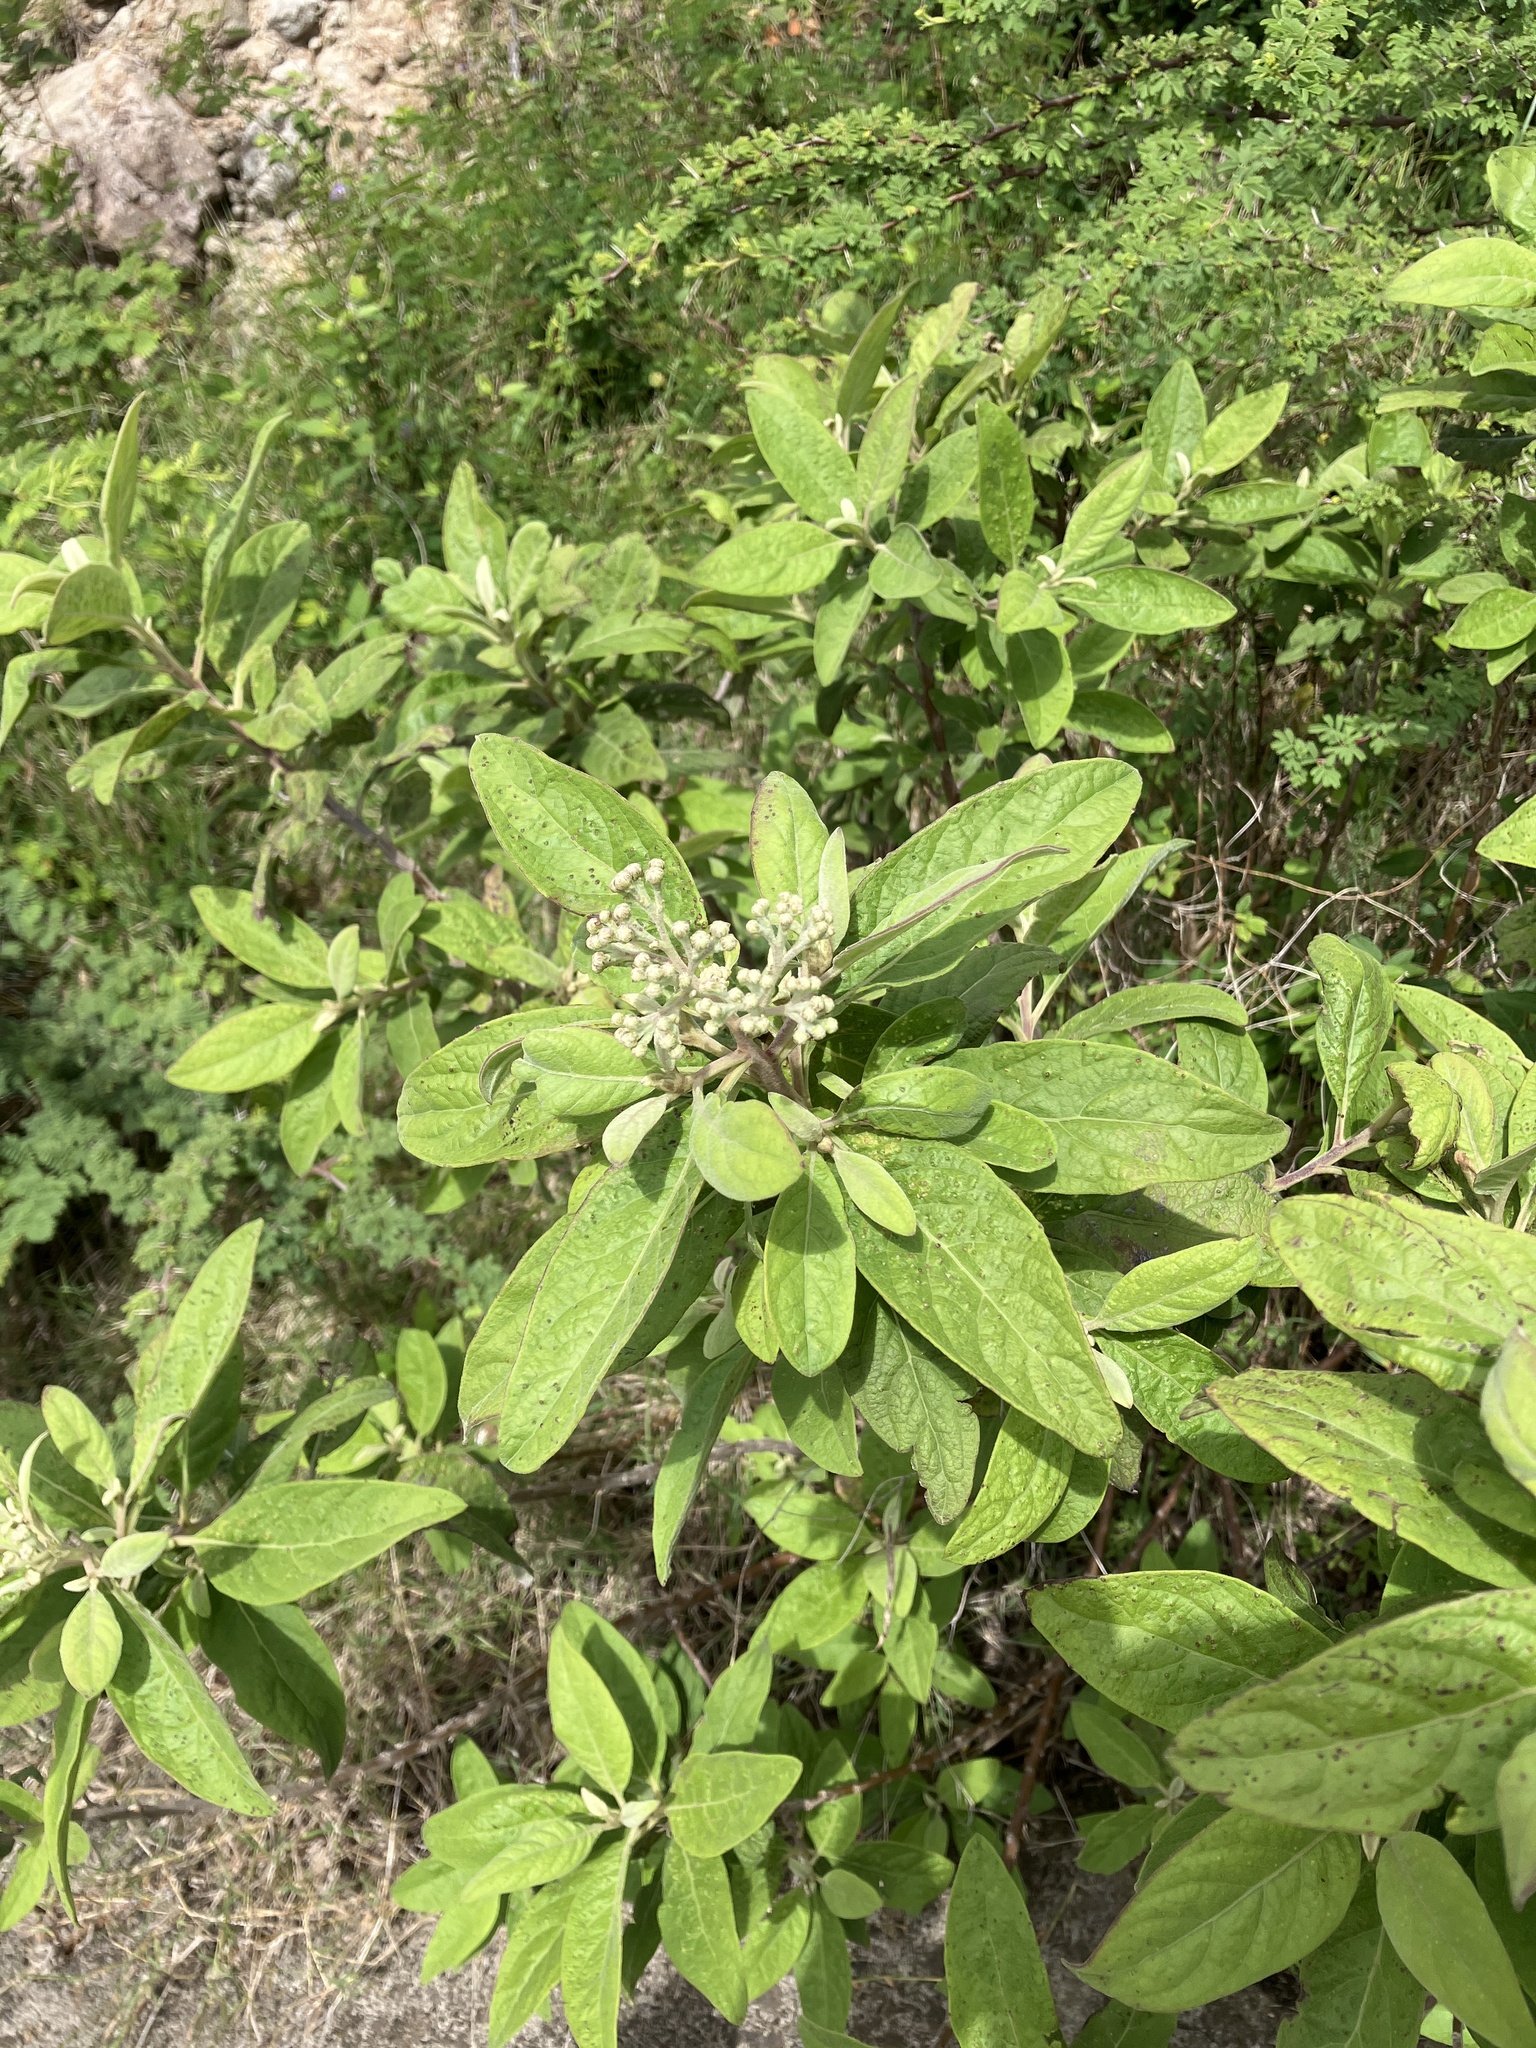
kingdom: Plantae
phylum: Tracheophyta
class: Magnoliopsida
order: Asterales
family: Asteraceae
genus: Pluchea
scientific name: Pluchea carolinensis
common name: Marsh fleabane
